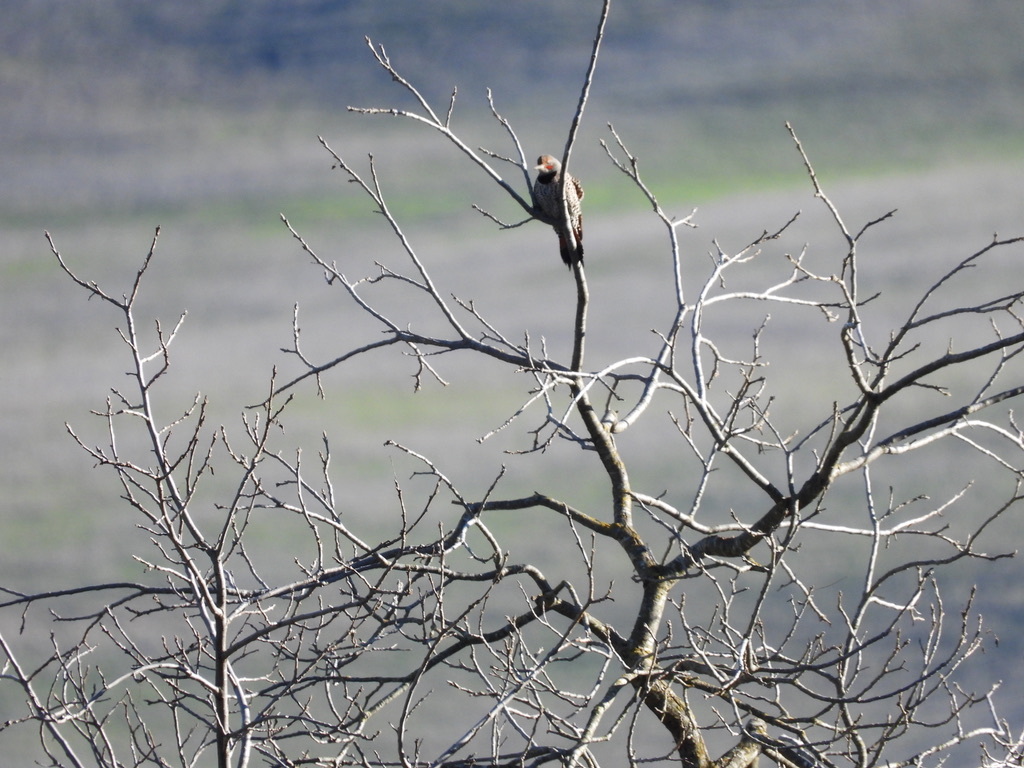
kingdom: Animalia
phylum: Chordata
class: Aves
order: Piciformes
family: Picidae
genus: Colaptes
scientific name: Colaptes auratus
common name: Northern flicker
